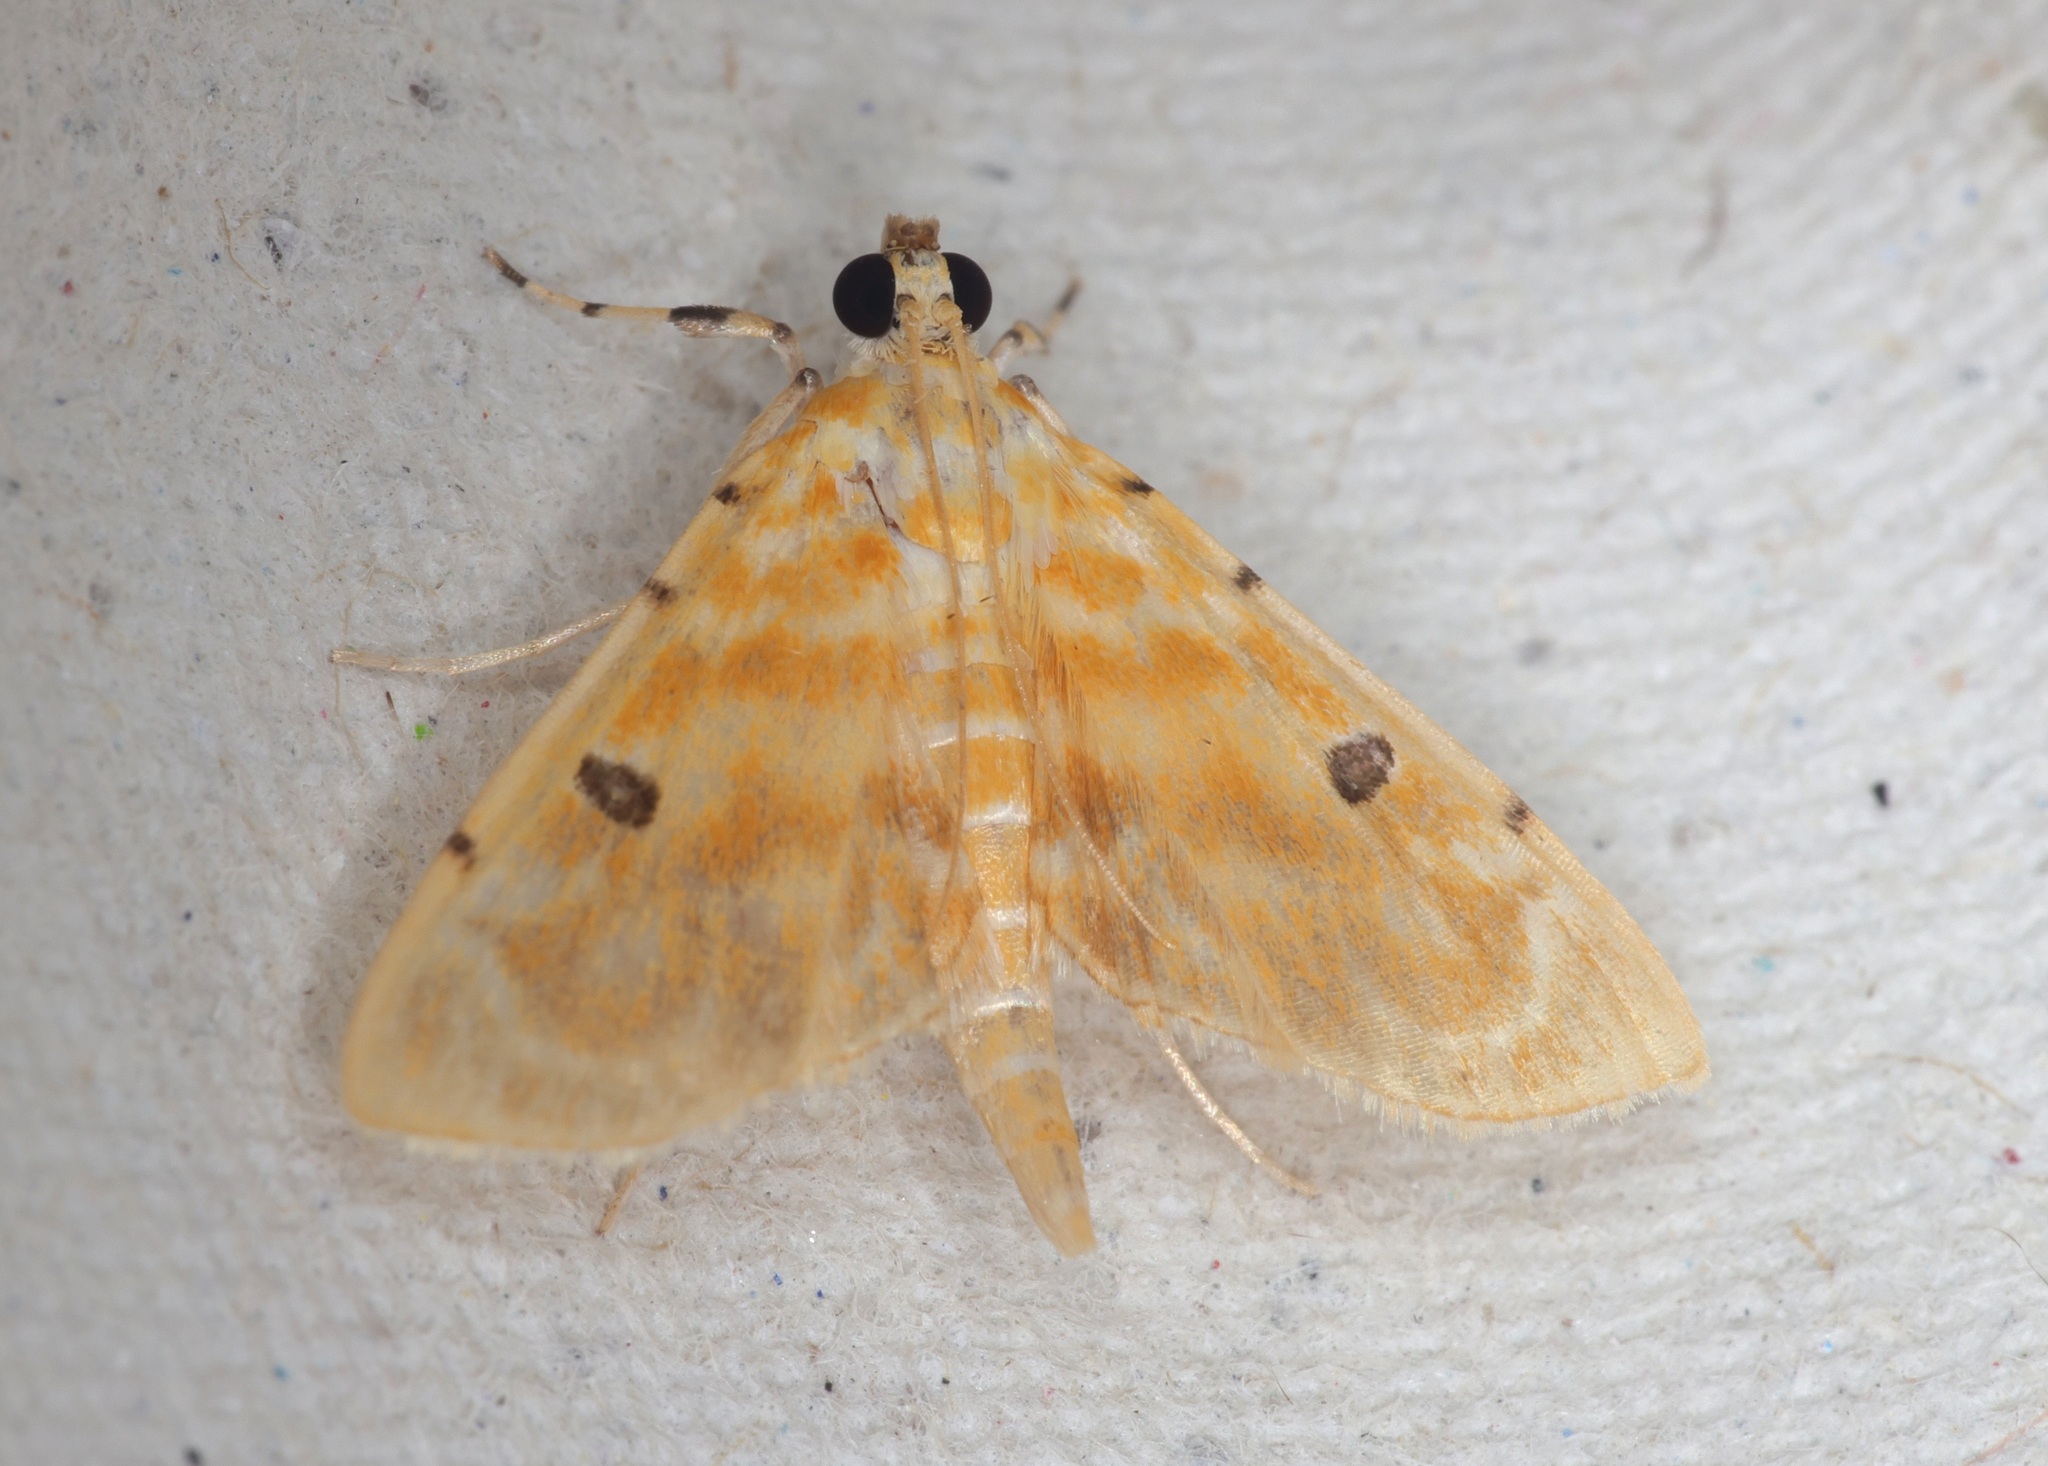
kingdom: Animalia
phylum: Arthropoda
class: Insecta
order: Lepidoptera
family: Crambidae
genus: Notarcha
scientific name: Notarcha aurolinealis
